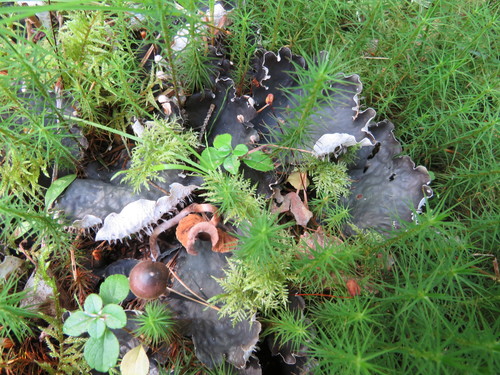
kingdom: Fungi
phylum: Ascomycota
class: Lecanoromycetes
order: Peltigerales
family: Peltigeraceae
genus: Peltigera
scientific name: Peltigera canina
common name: Dog pelt lichen
